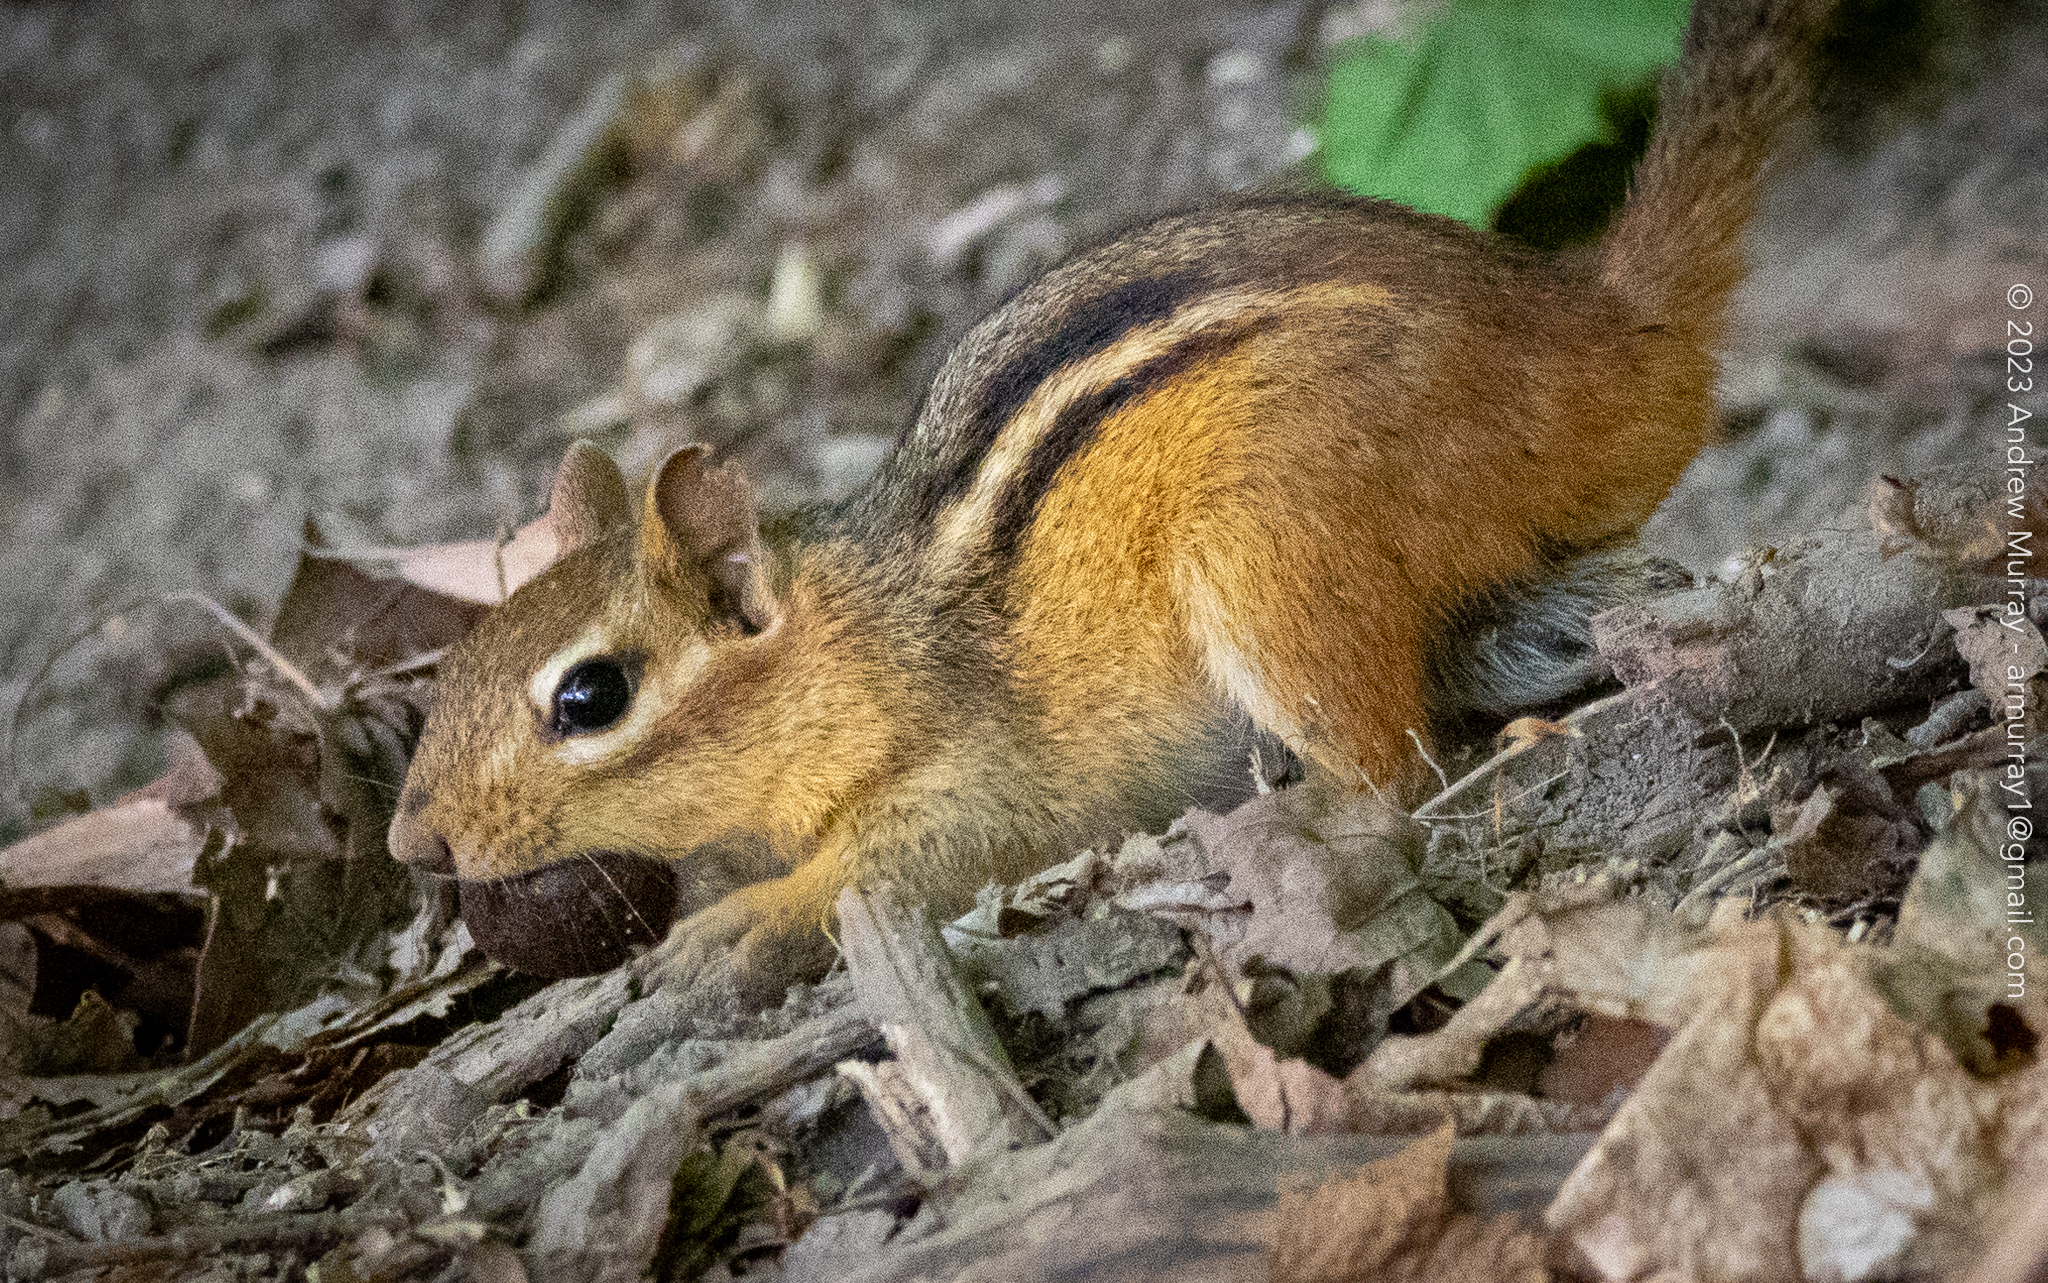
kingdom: Animalia
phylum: Chordata
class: Mammalia
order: Rodentia
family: Sciuridae
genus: Tamias
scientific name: Tamias striatus
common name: Eastern chipmunk
